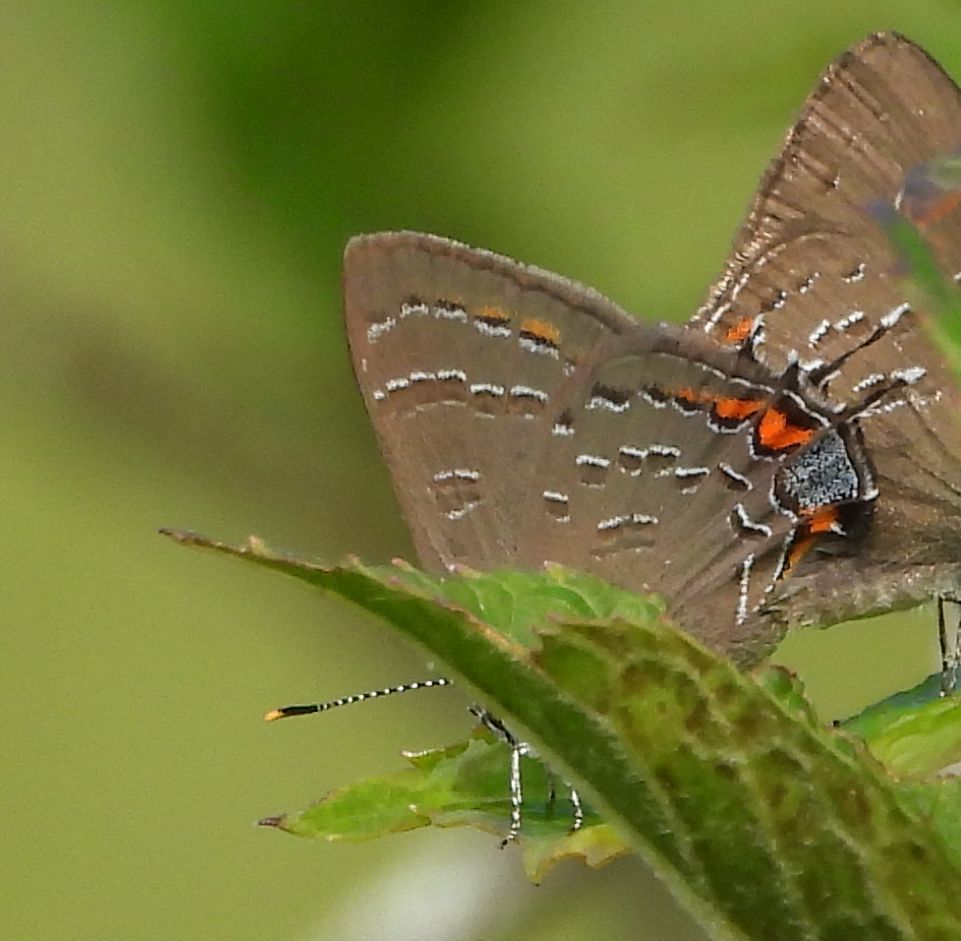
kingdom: Animalia
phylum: Arthropoda
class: Insecta
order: Lepidoptera
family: Lycaenidae
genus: Satyrium
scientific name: Satyrium calanus
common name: Banded hairstreak
